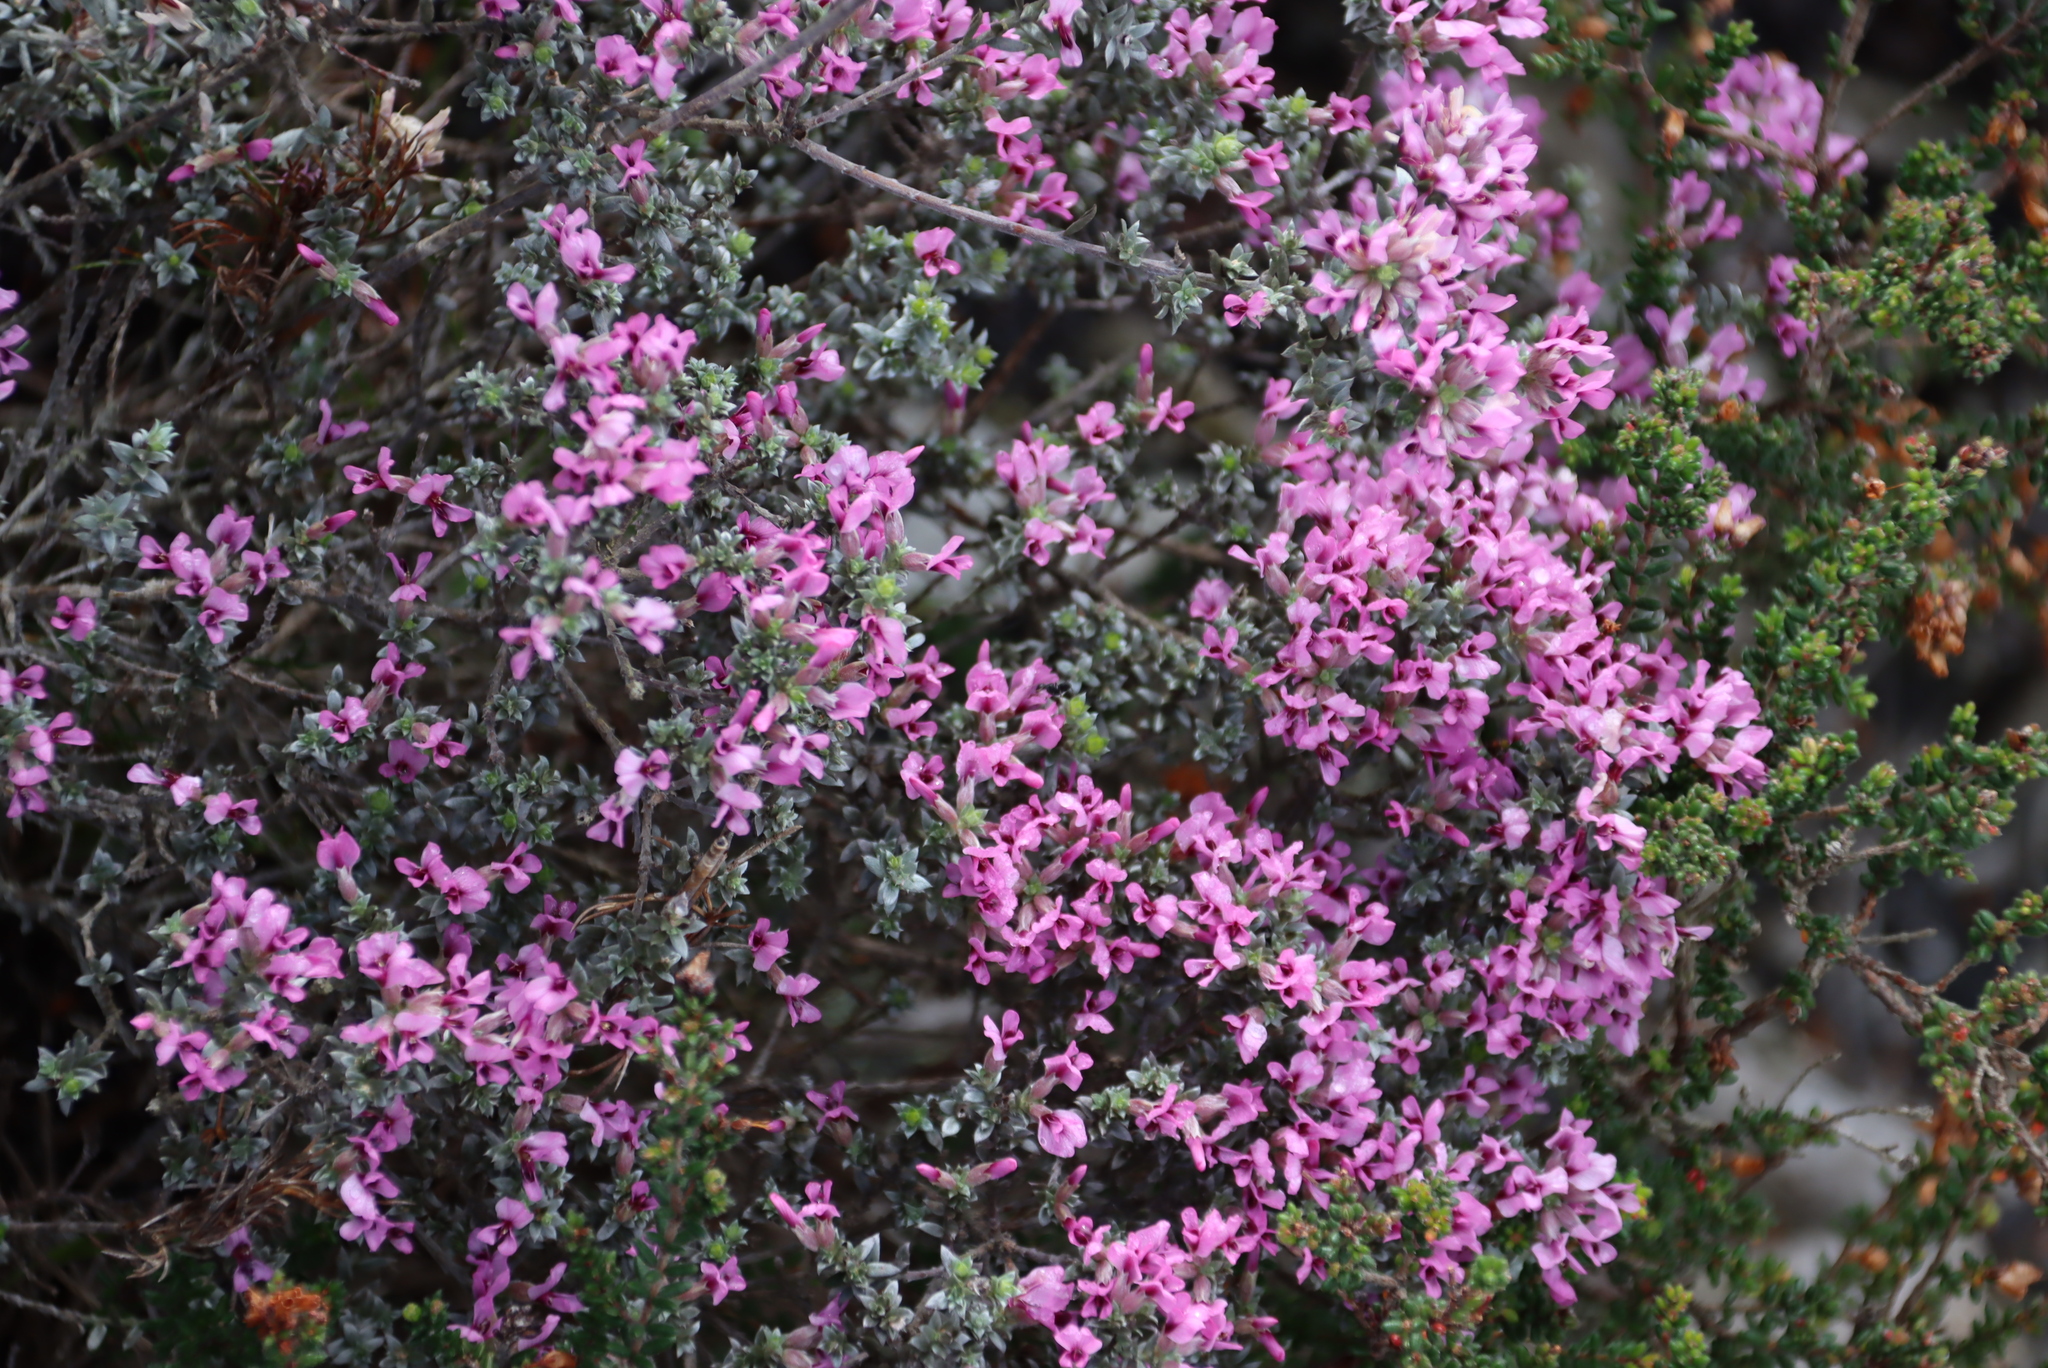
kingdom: Plantae
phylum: Tracheophyta
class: Magnoliopsida
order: Fabales
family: Fabaceae
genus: Amphithalea
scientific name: Amphithalea ericifolia
